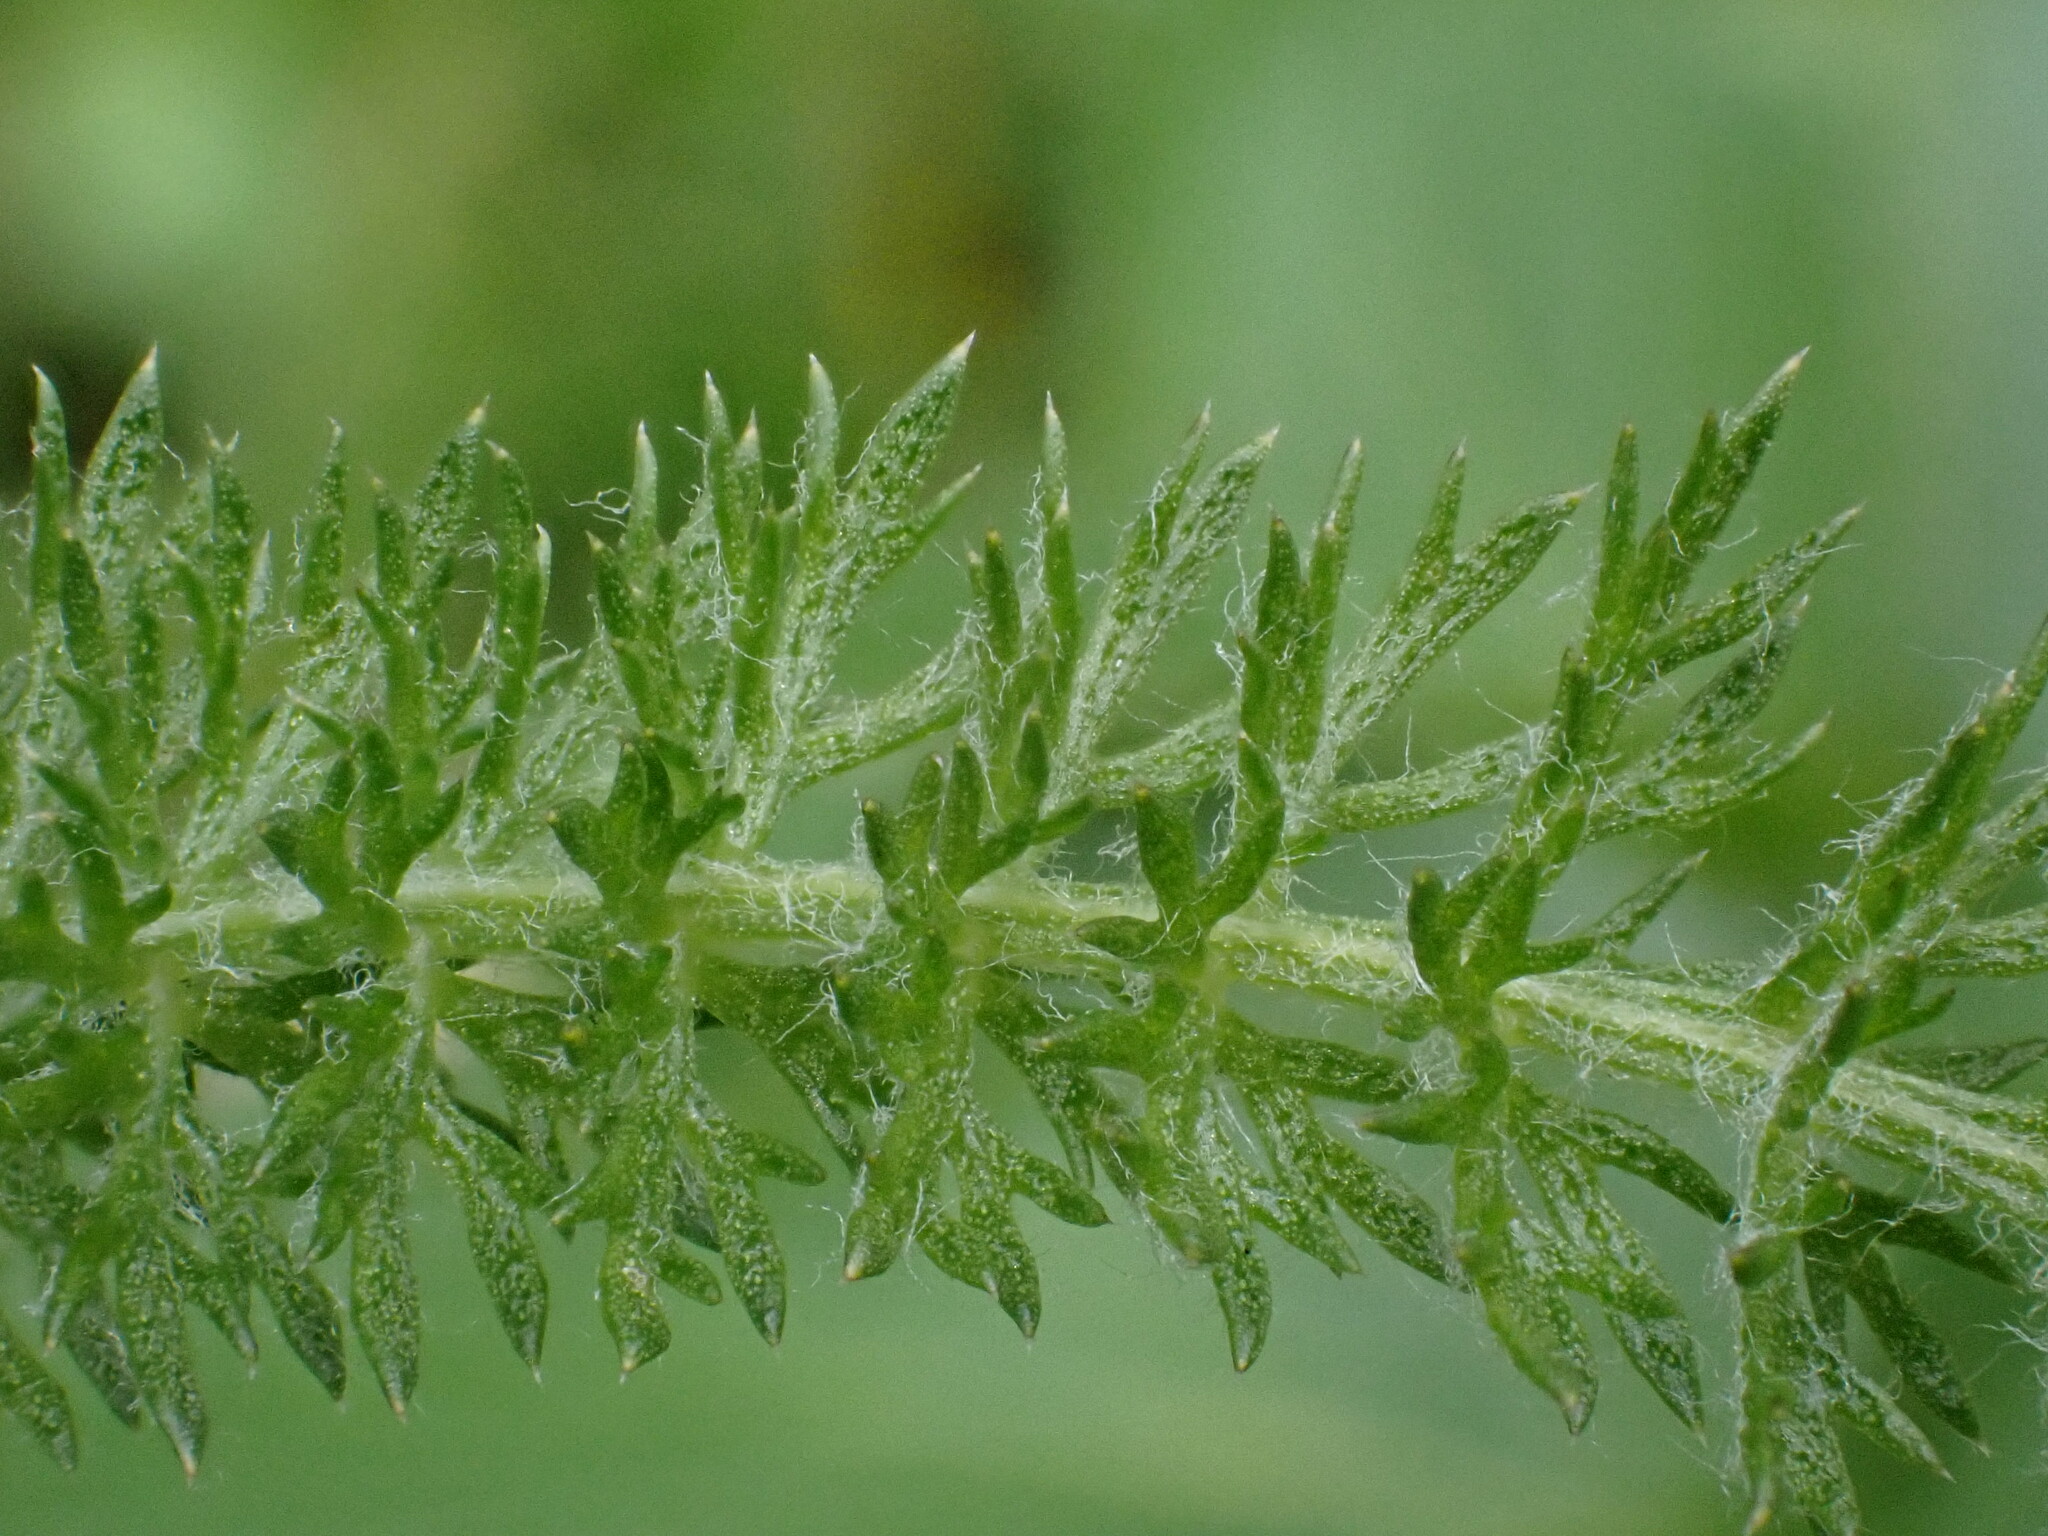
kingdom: Plantae
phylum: Tracheophyta
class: Magnoliopsida
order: Asterales
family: Asteraceae
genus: Achillea
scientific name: Achillea millefolium
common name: Yarrow
